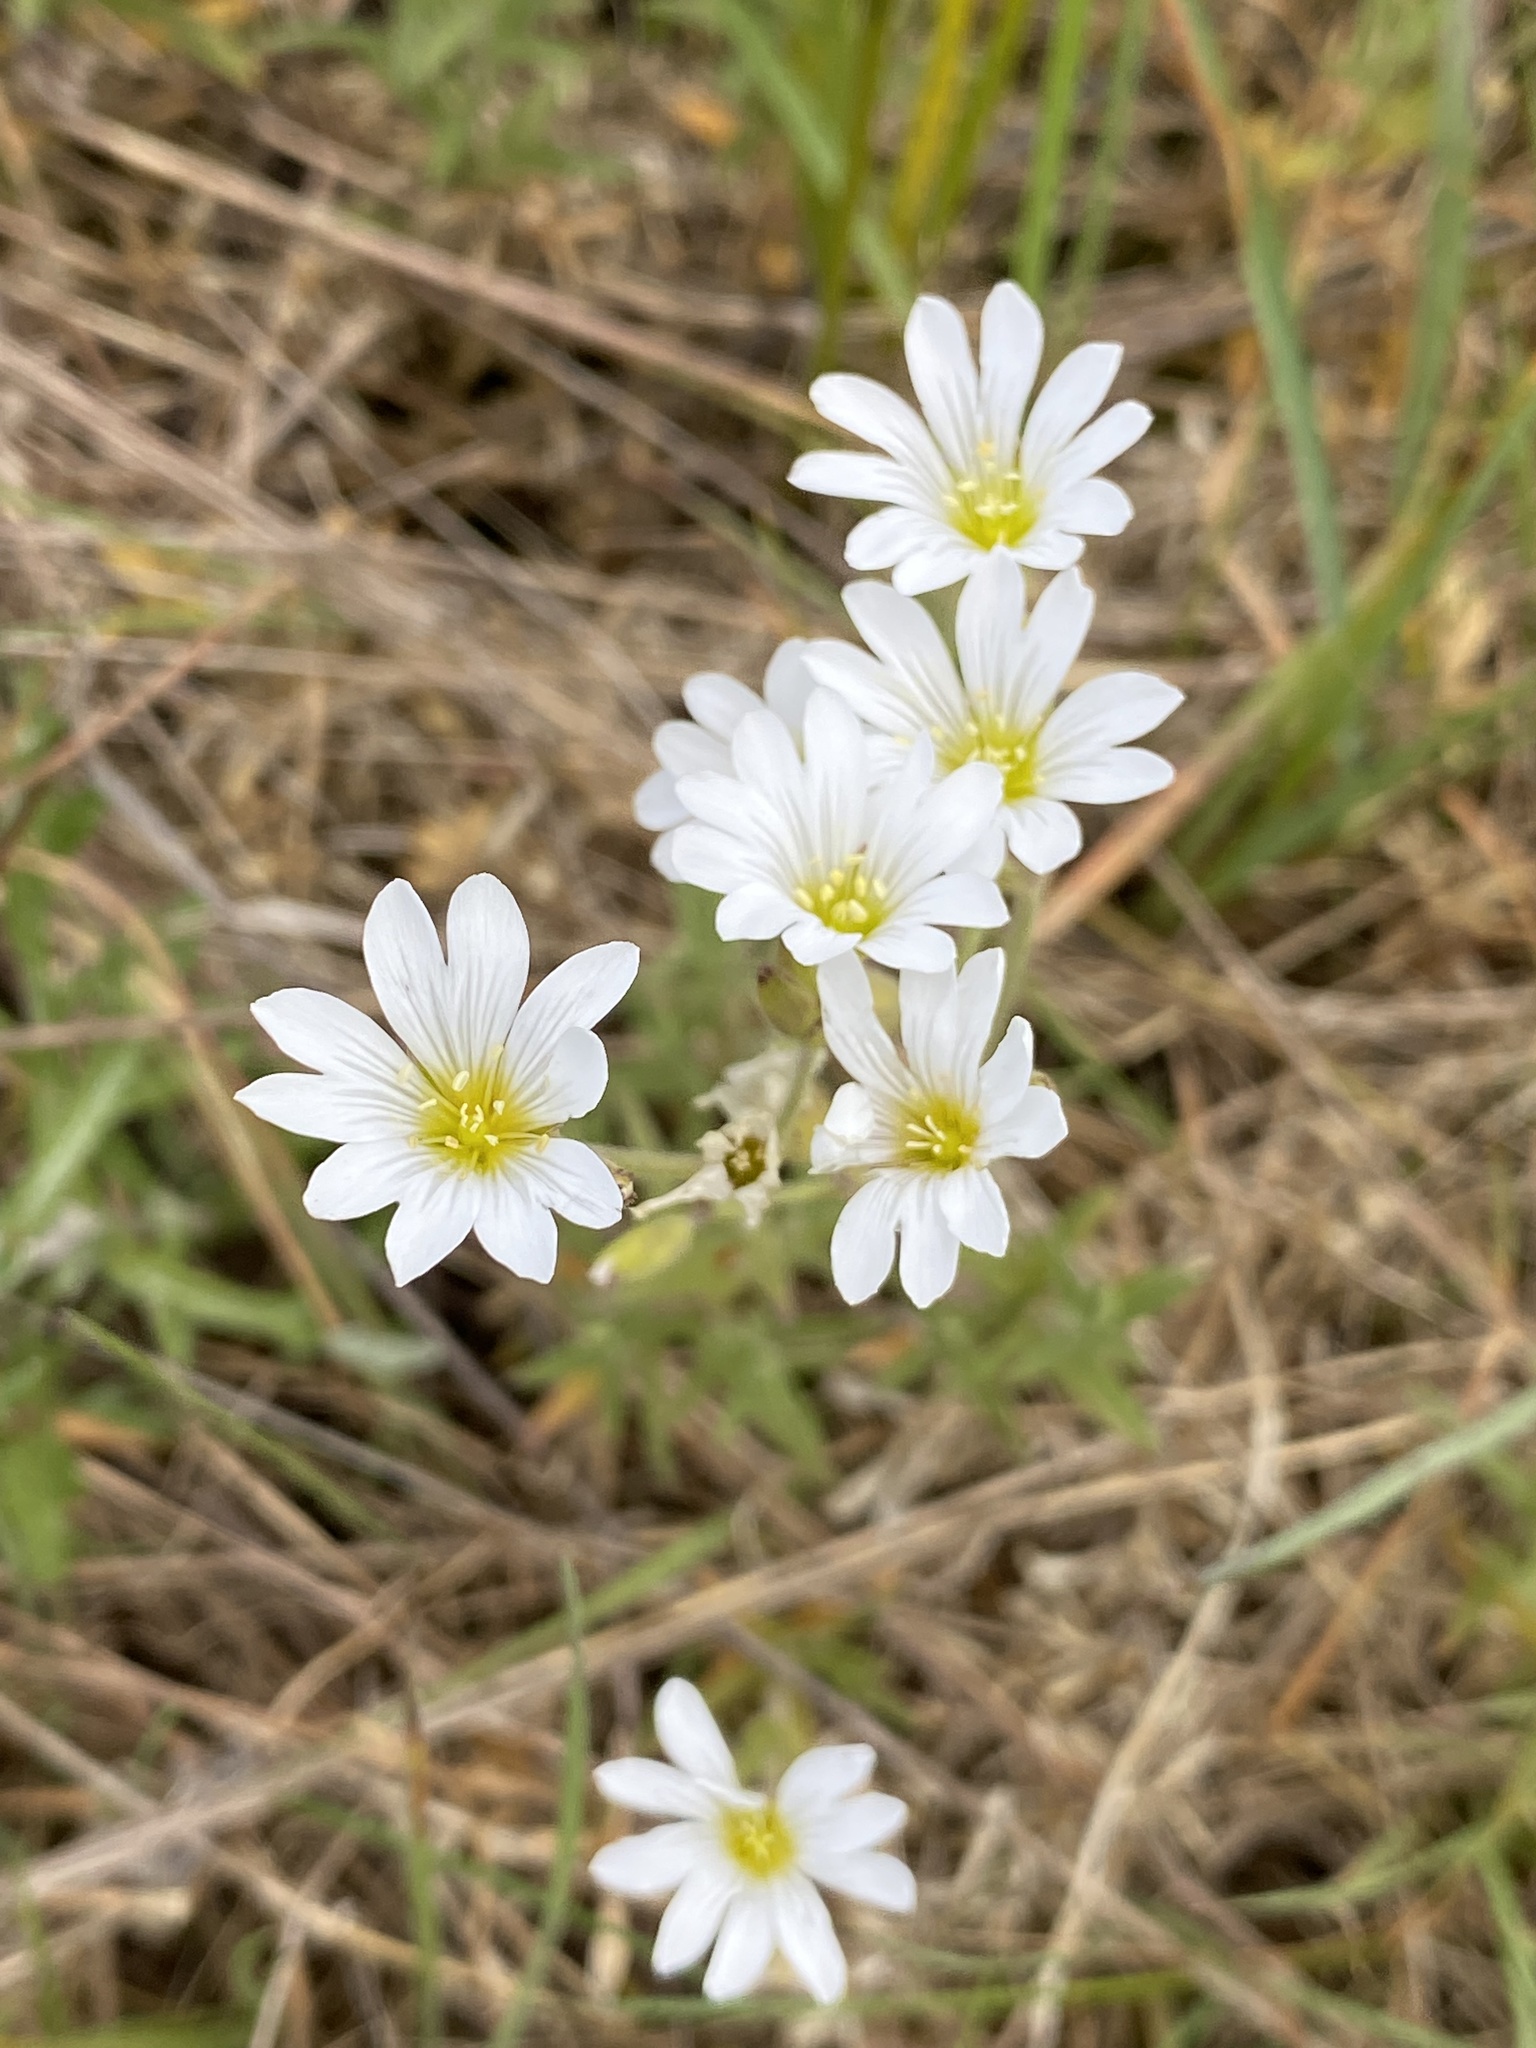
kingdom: Plantae
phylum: Tracheophyta
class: Magnoliopsida
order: Caryophyllales
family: Caryophyllaceae
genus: Cerastium
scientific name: Cerastium arvense
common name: Field mouse-ear
